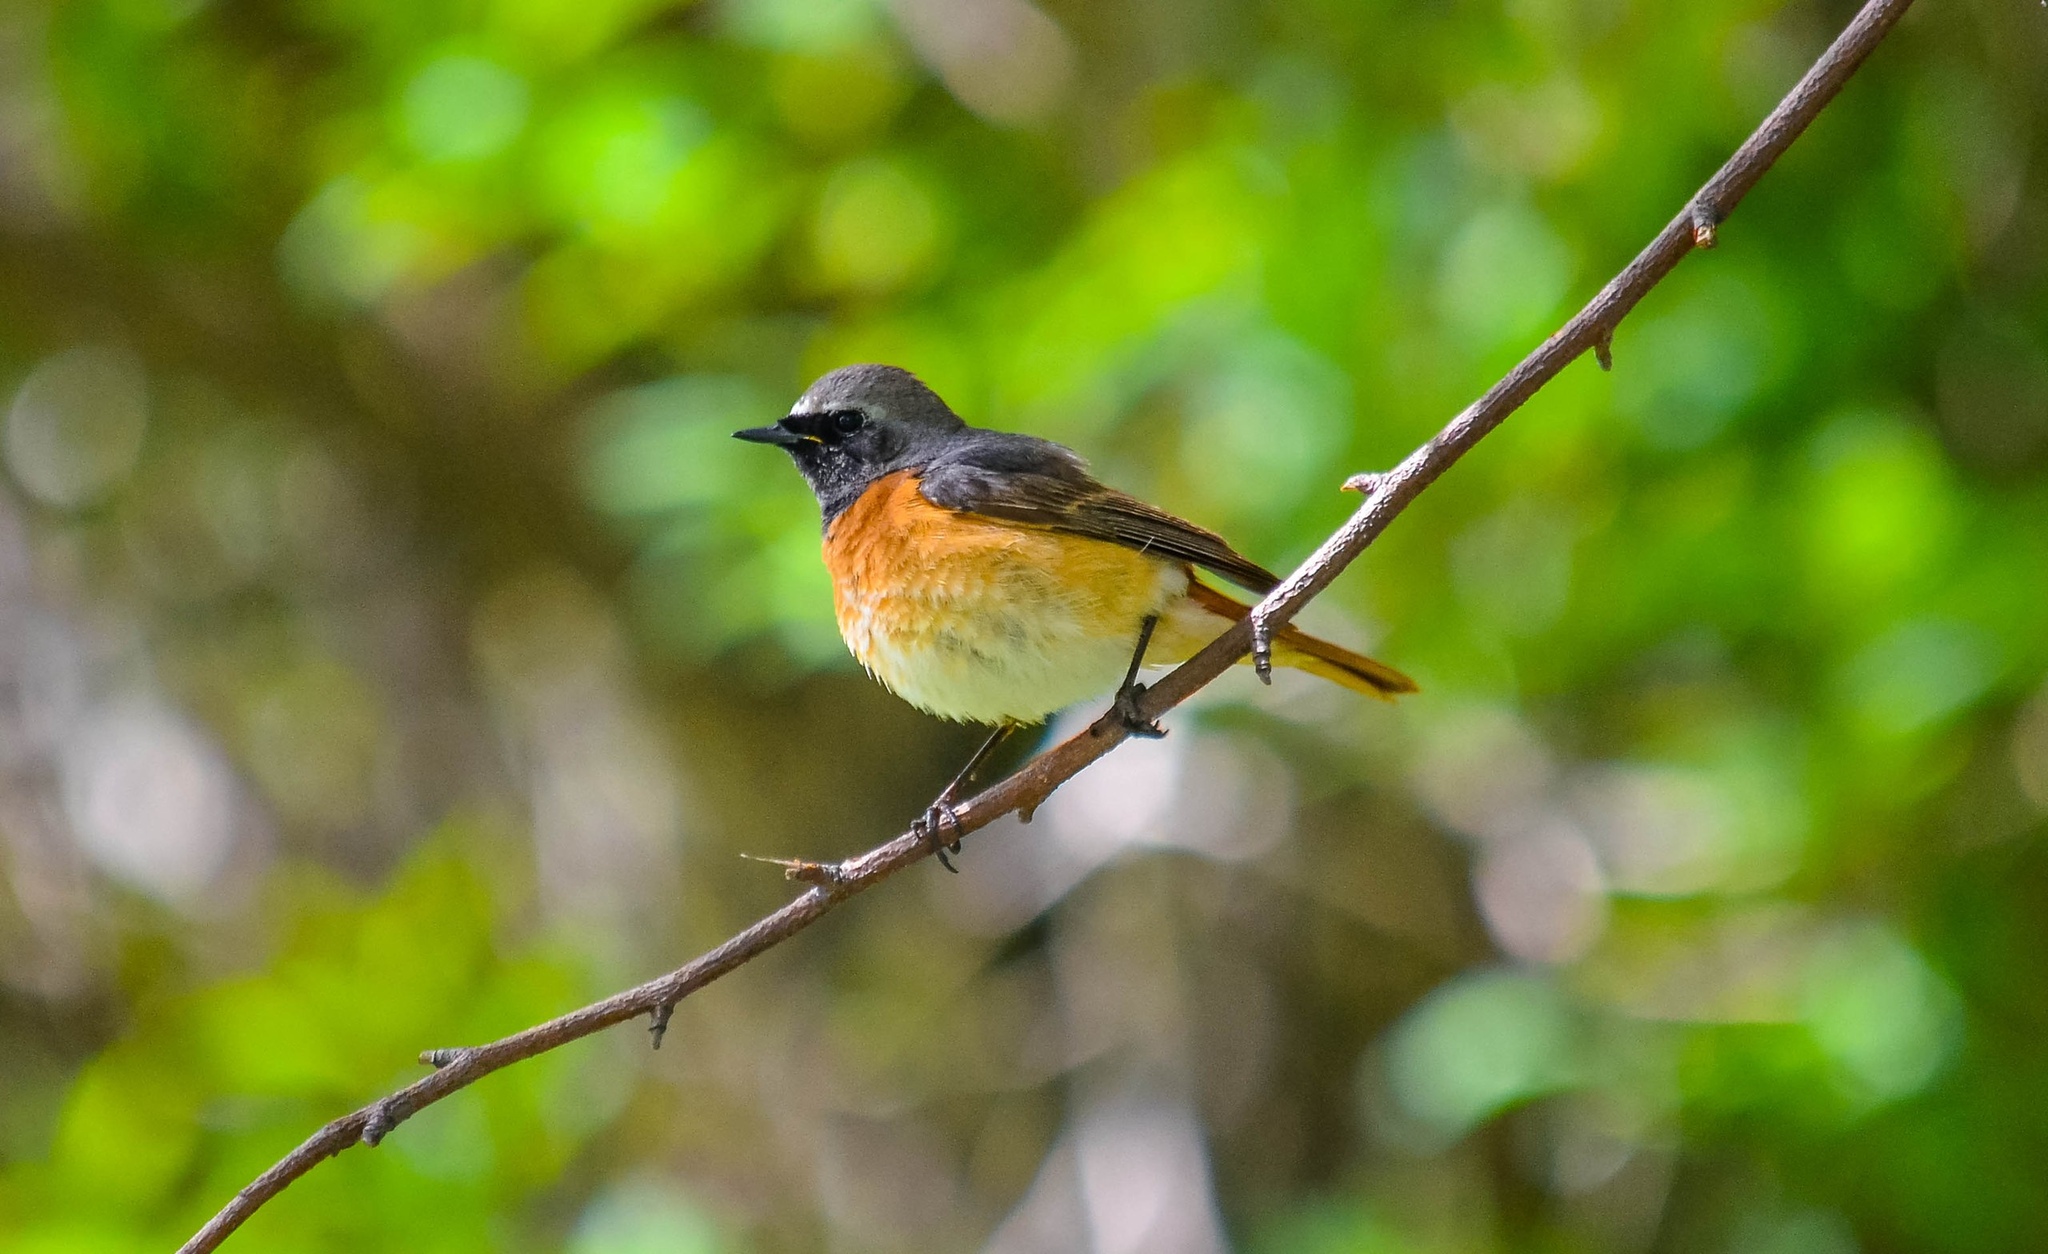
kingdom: Animalia
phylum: Chordata
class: Aves
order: Passeriformes
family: Muscicapidae
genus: Phoenicurus
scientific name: Phoenicurus phoenicurus
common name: Common redstart
